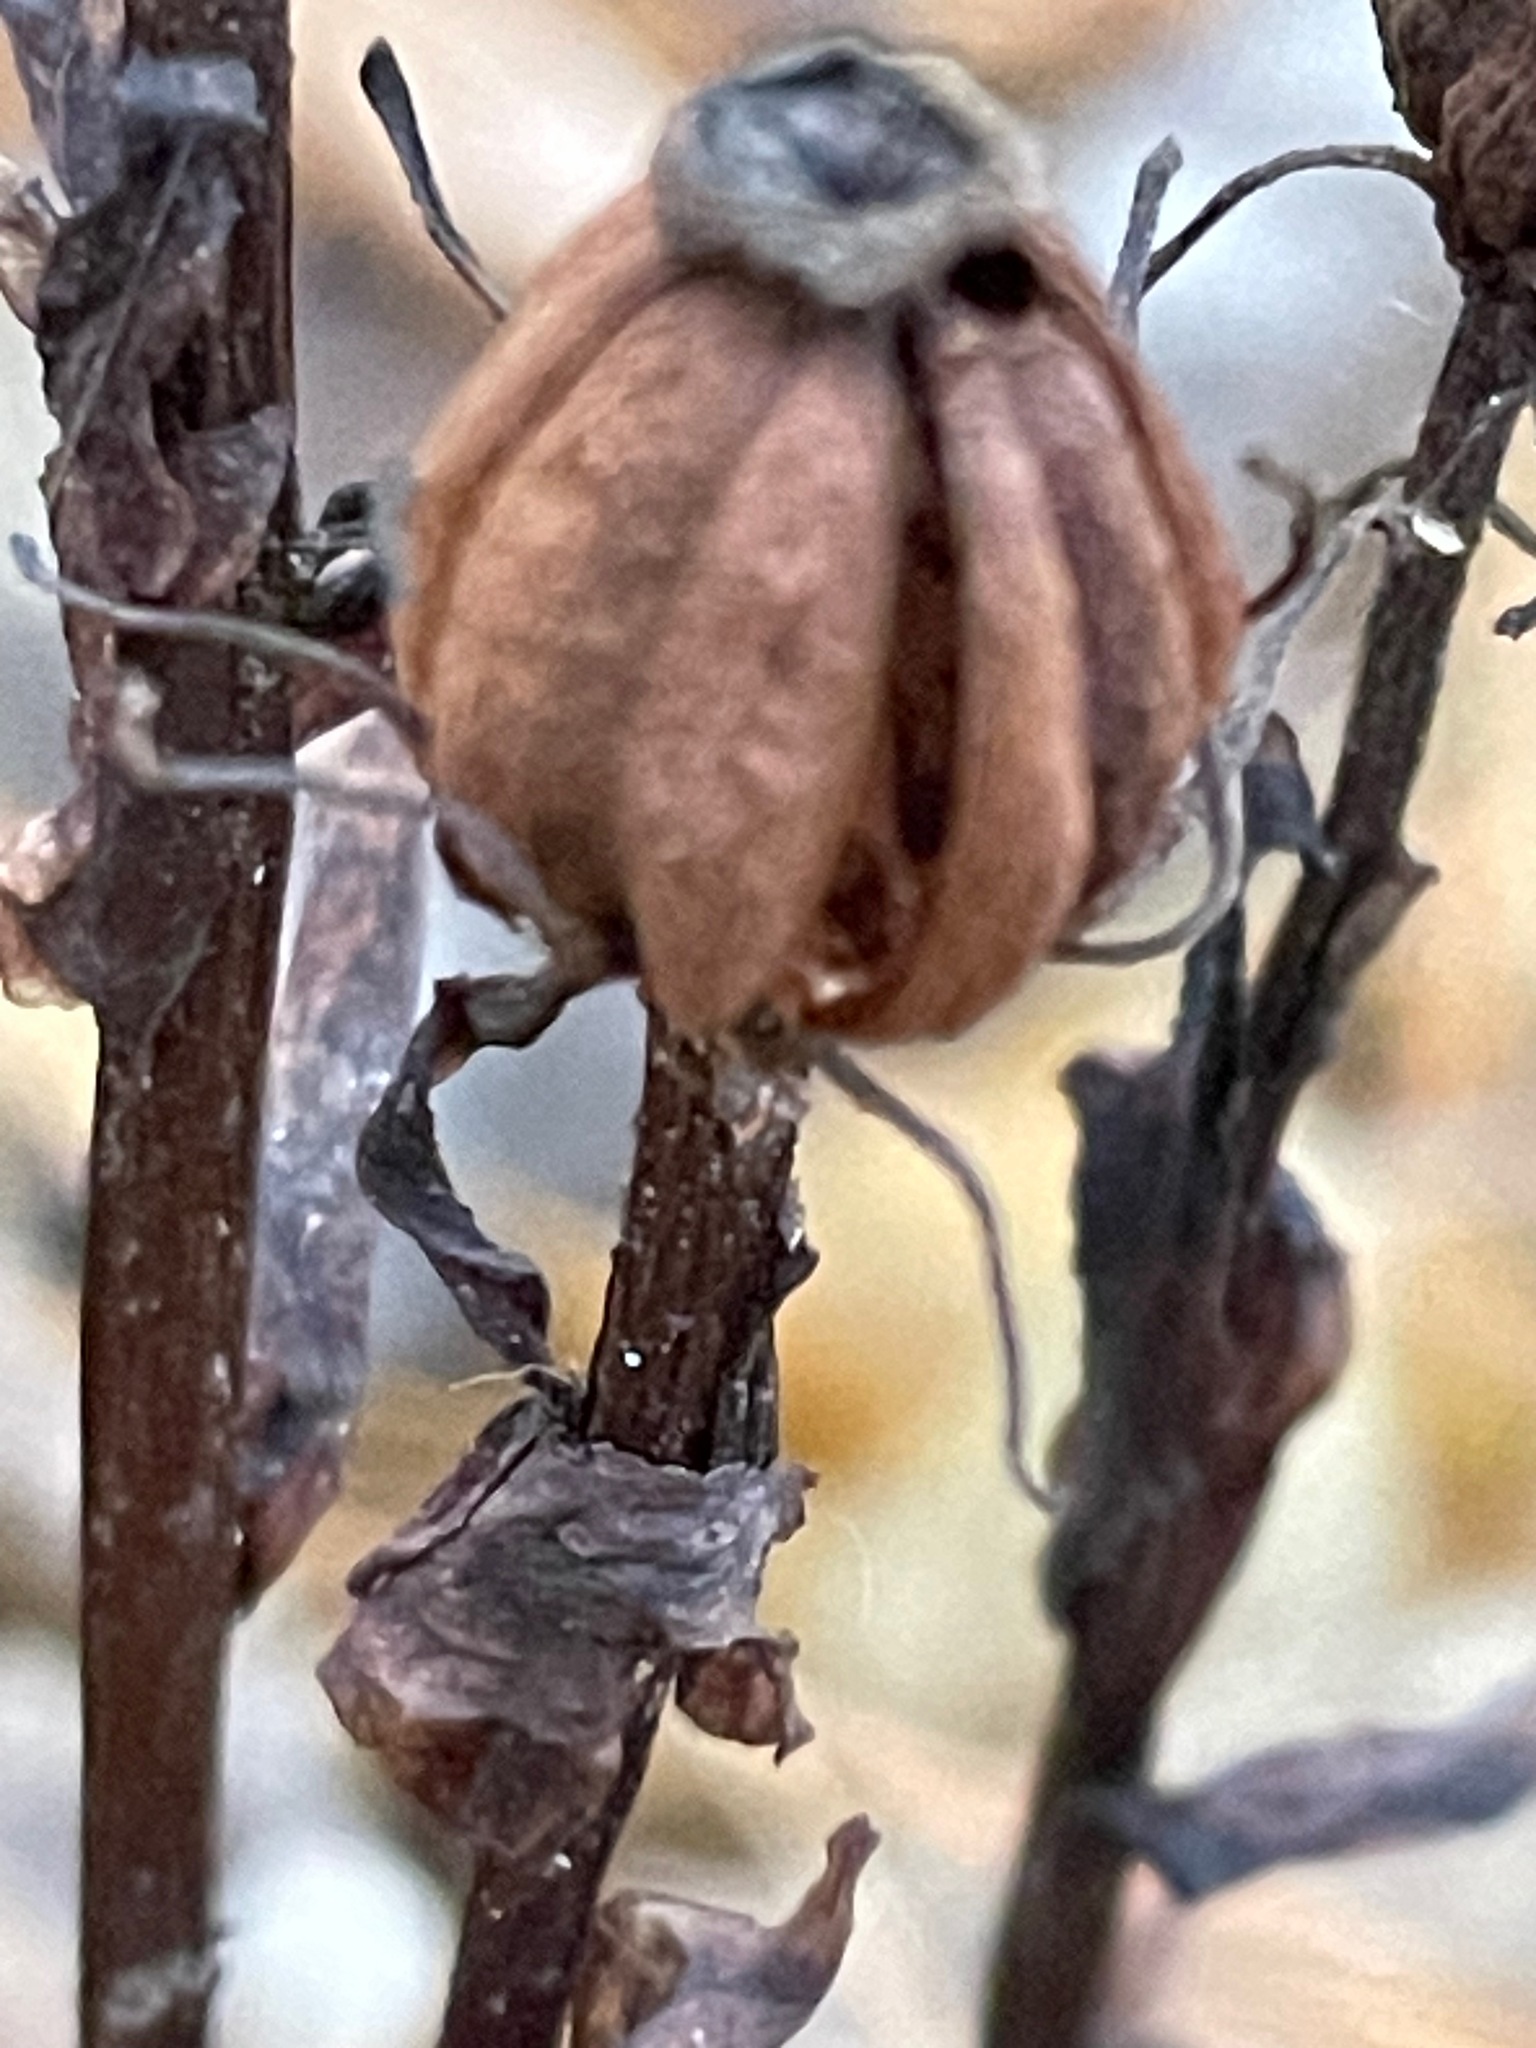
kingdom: Plantae
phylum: Tracheophyta
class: Magnoliopsida
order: Ericales
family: Ericaceae
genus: Monotropa
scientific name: Monotropa uniflora
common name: Convulsion root
